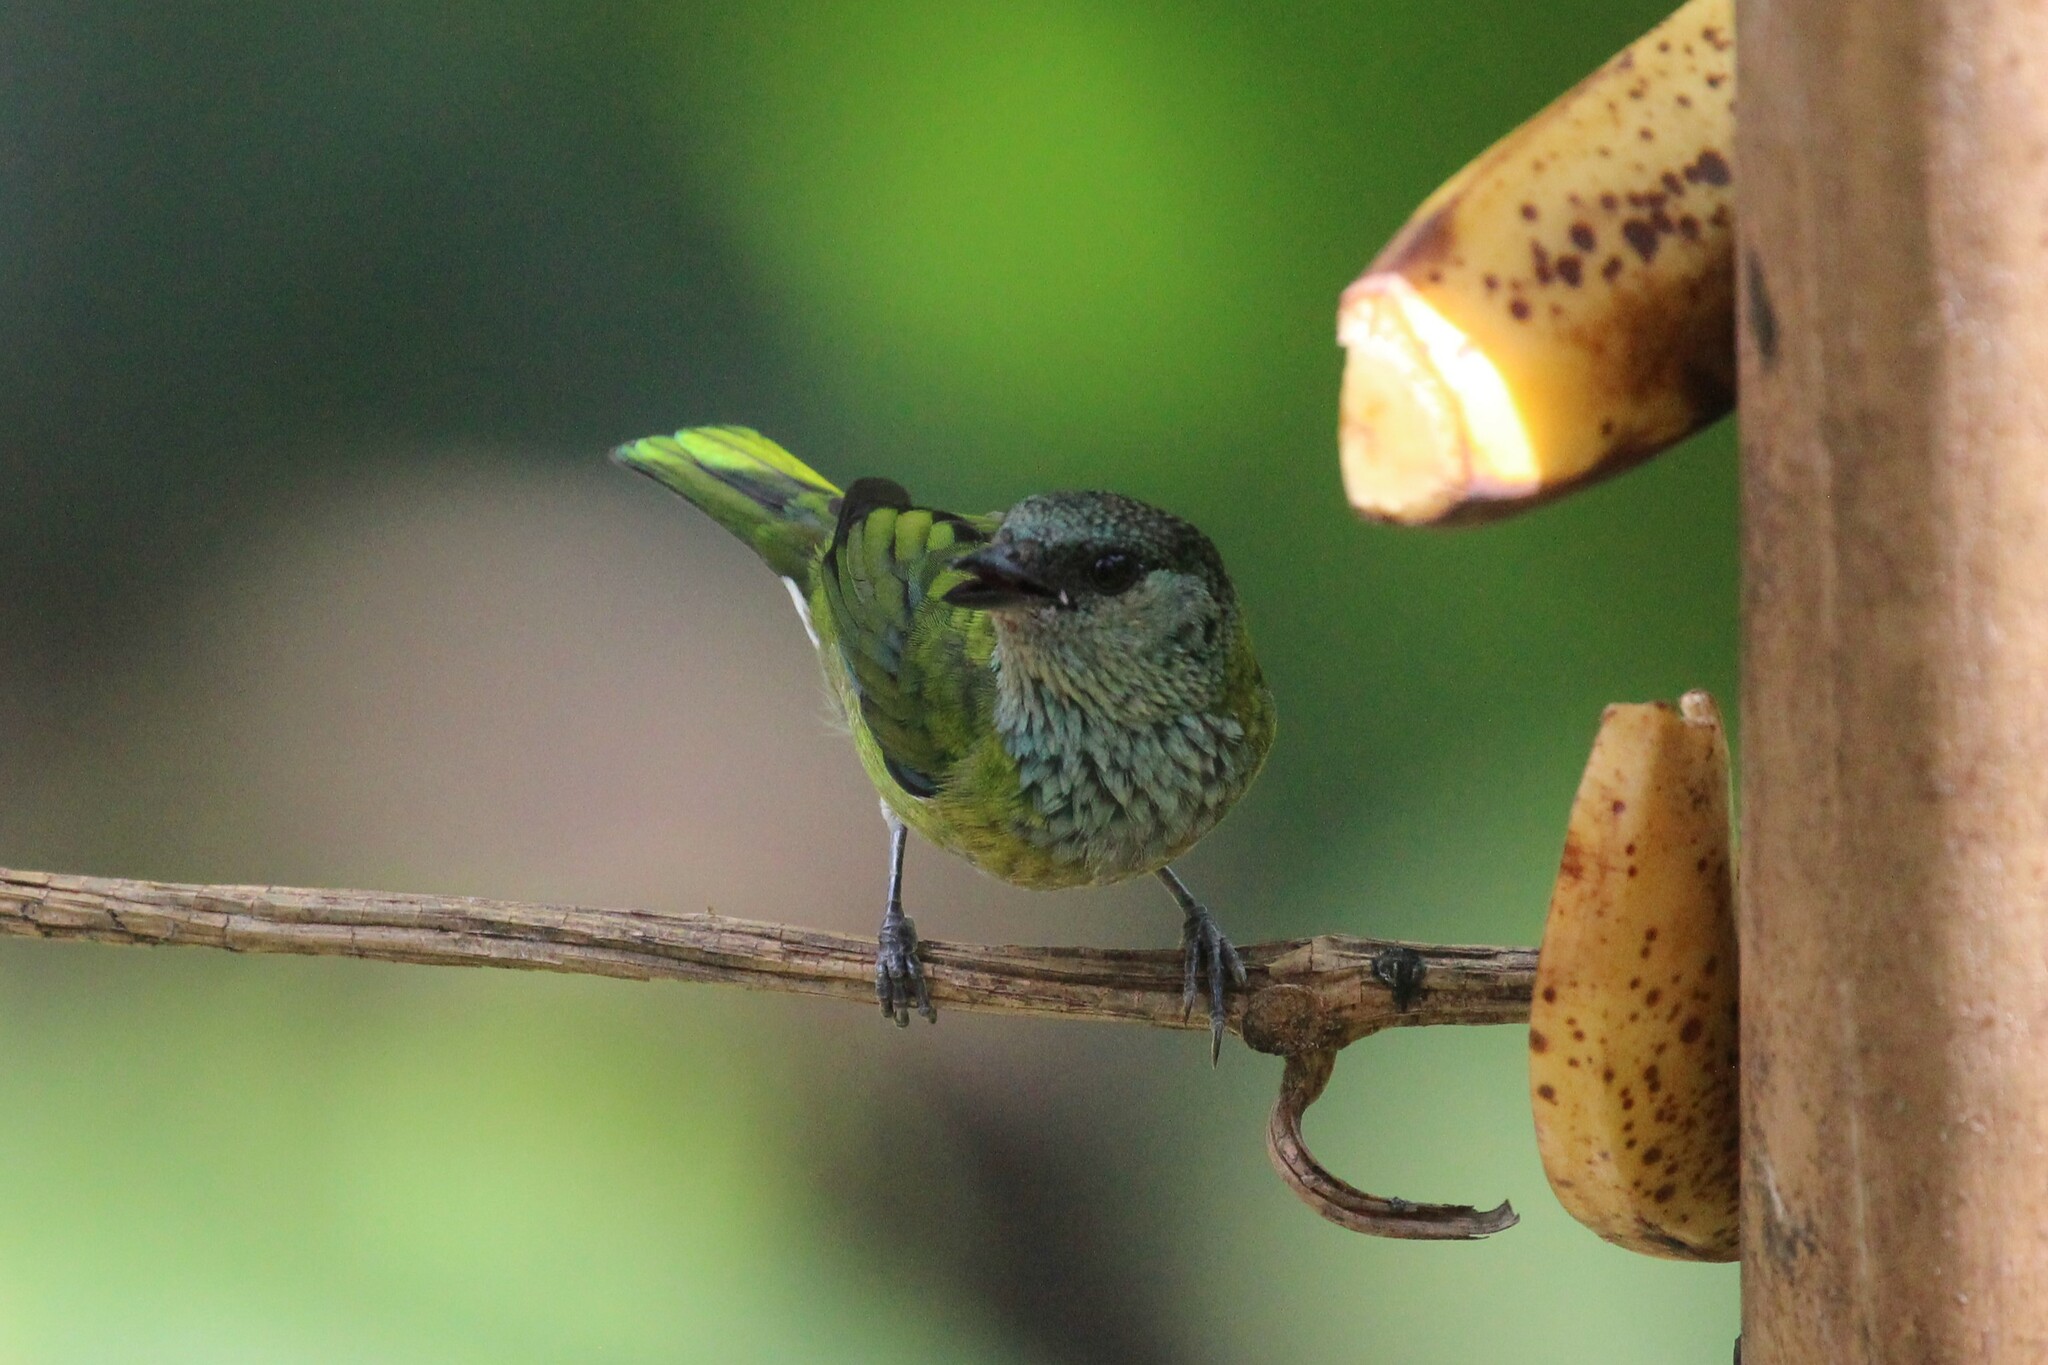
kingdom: Animalia
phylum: Chordata
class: Aves
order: Passeriformes
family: Thraupidae
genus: Stilpnia
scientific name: Stilpnia heinei
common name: Black-capped tanager
